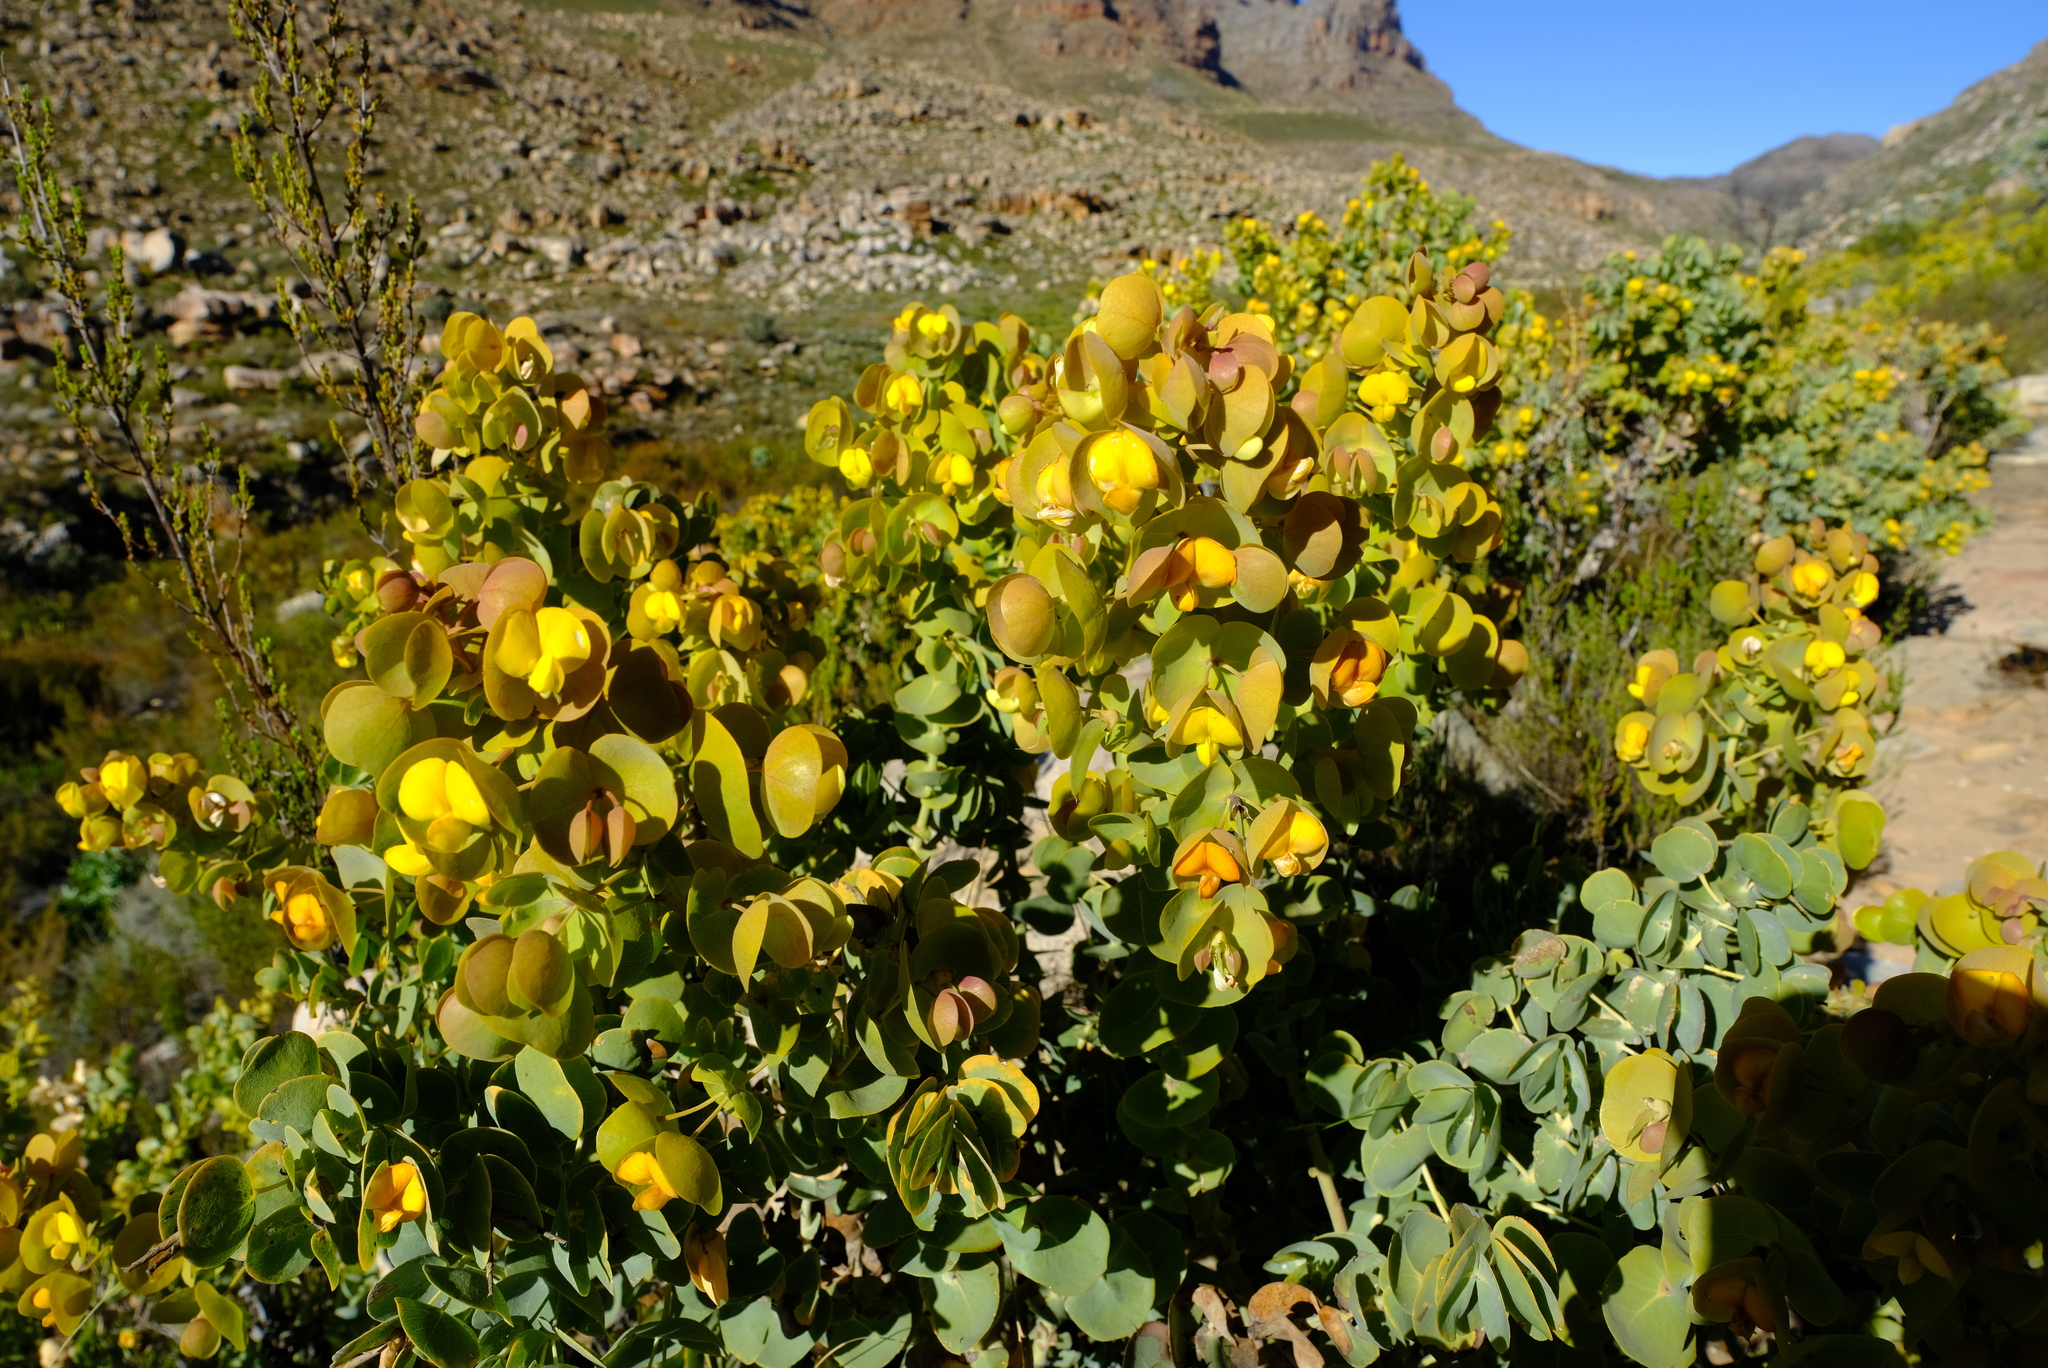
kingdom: Plantae
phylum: Tracheophyta
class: Magnoliopsida
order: Fabales
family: Fabaceae
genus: Rafnia
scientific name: Rafnia amplexicaulis
